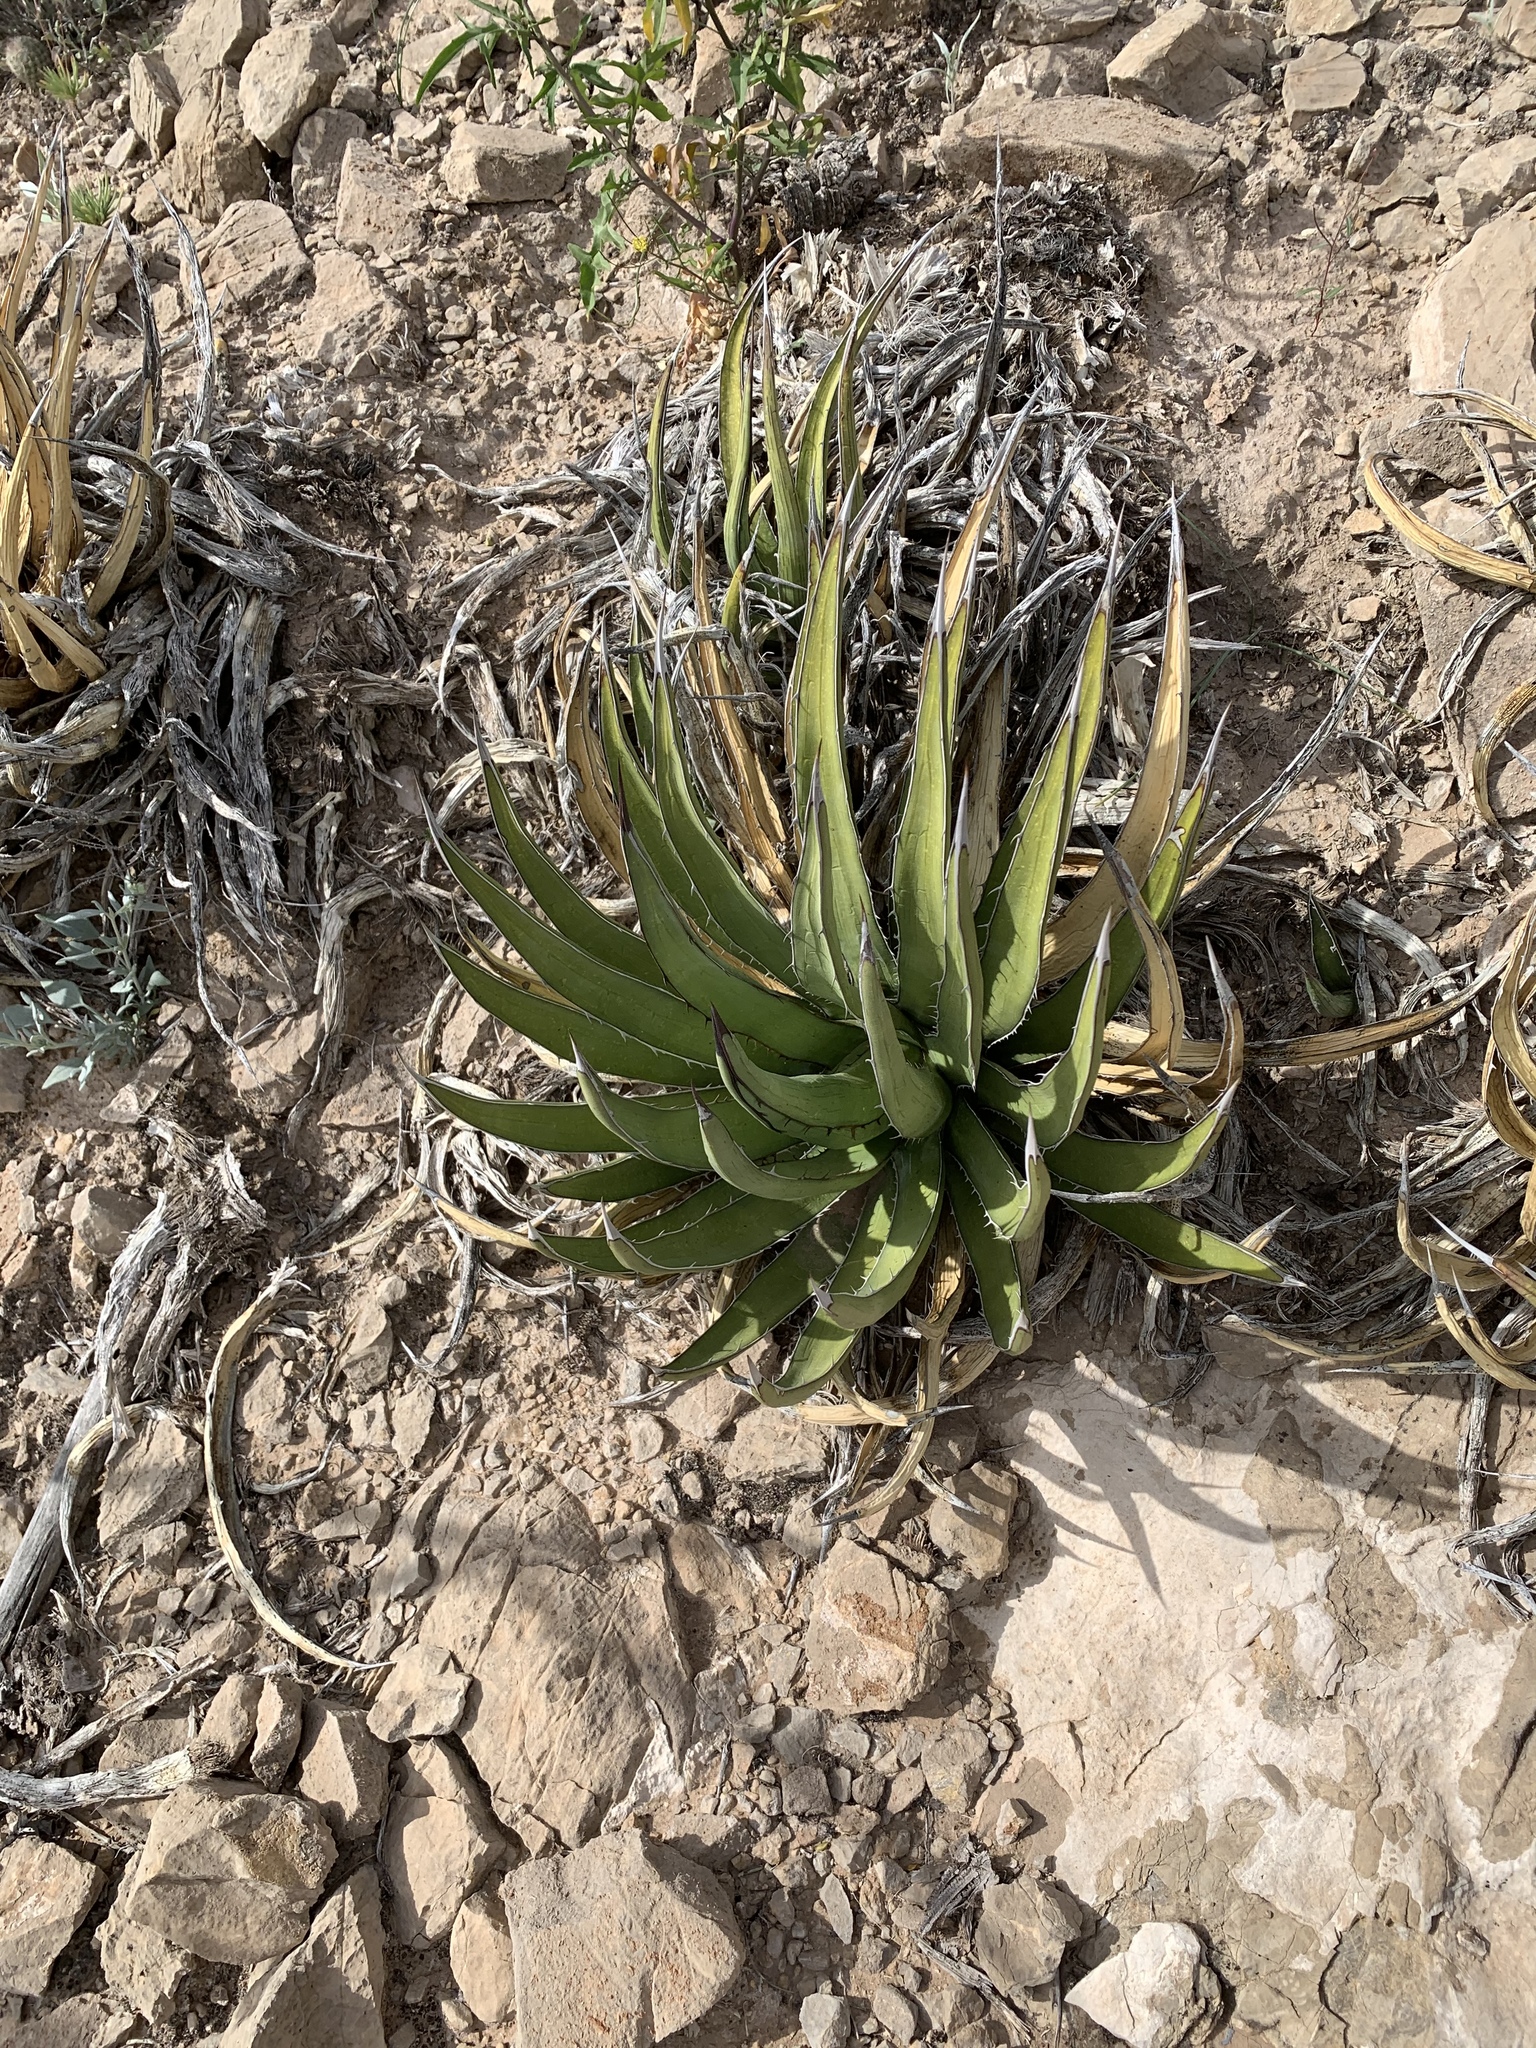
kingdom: Plantae
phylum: Tracheophyta
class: Liliopsida
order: Asparagales
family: Asparagaceae
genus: Agave
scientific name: Agave lechuguilla
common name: Lecheguilla agave
